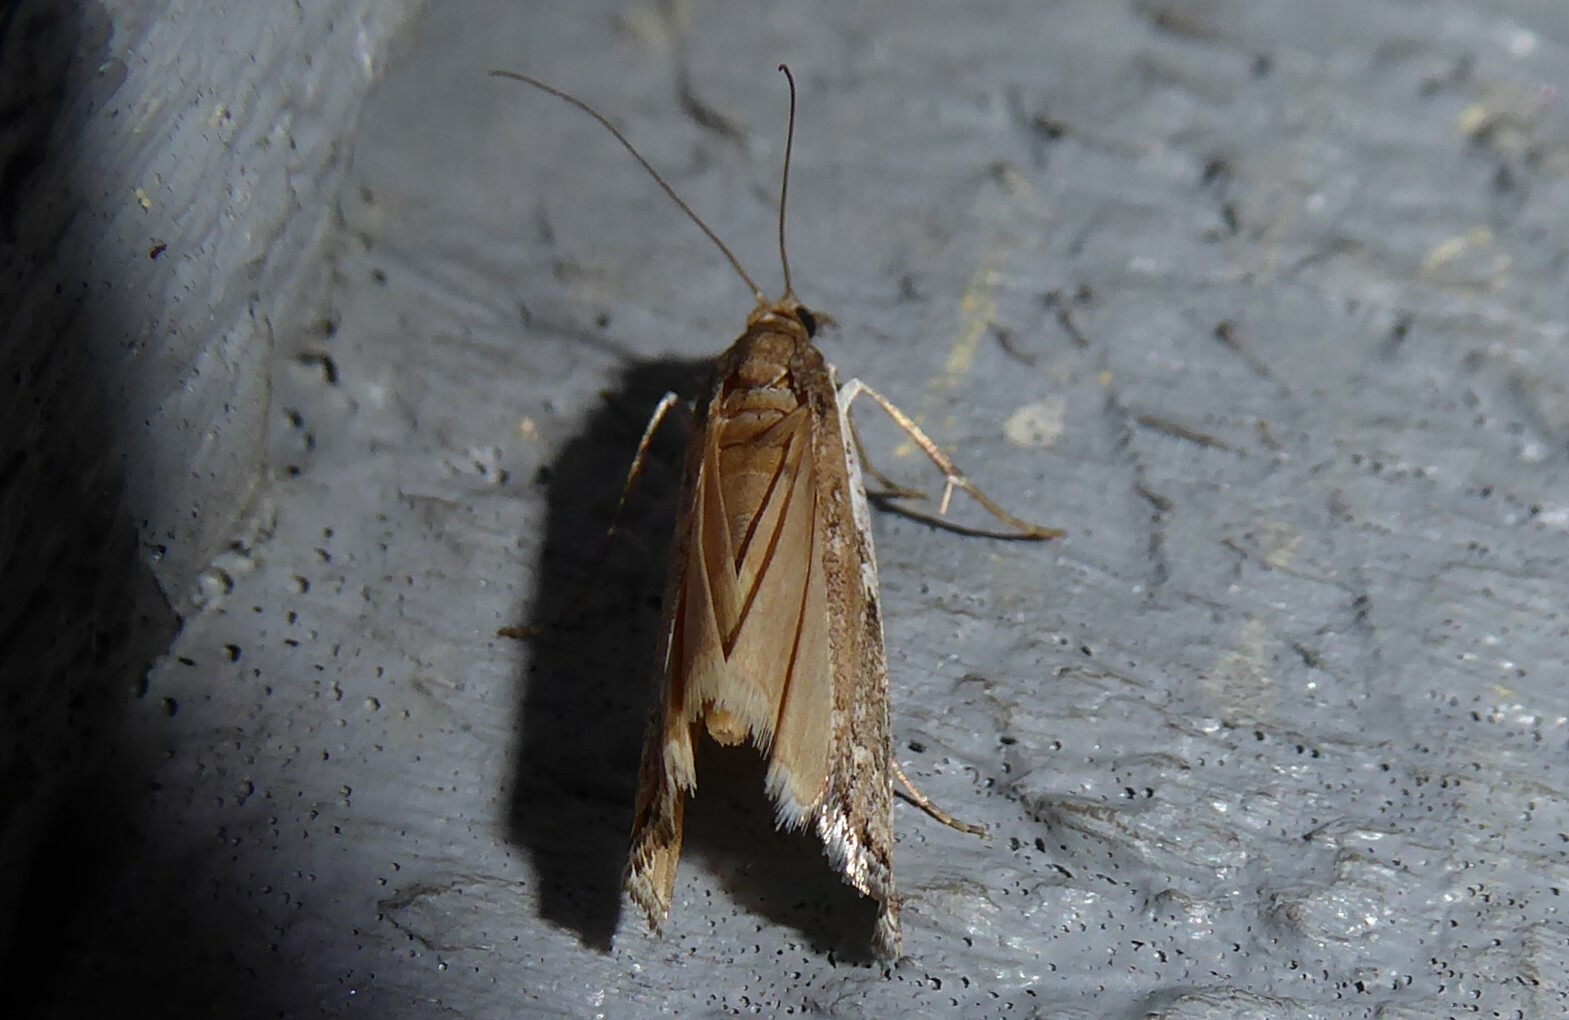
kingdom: Animalia
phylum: Arthropoda
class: Insecta
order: Lepidoptera
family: Crambidae
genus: Orocrambus
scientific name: Orocrambus vulgaris
